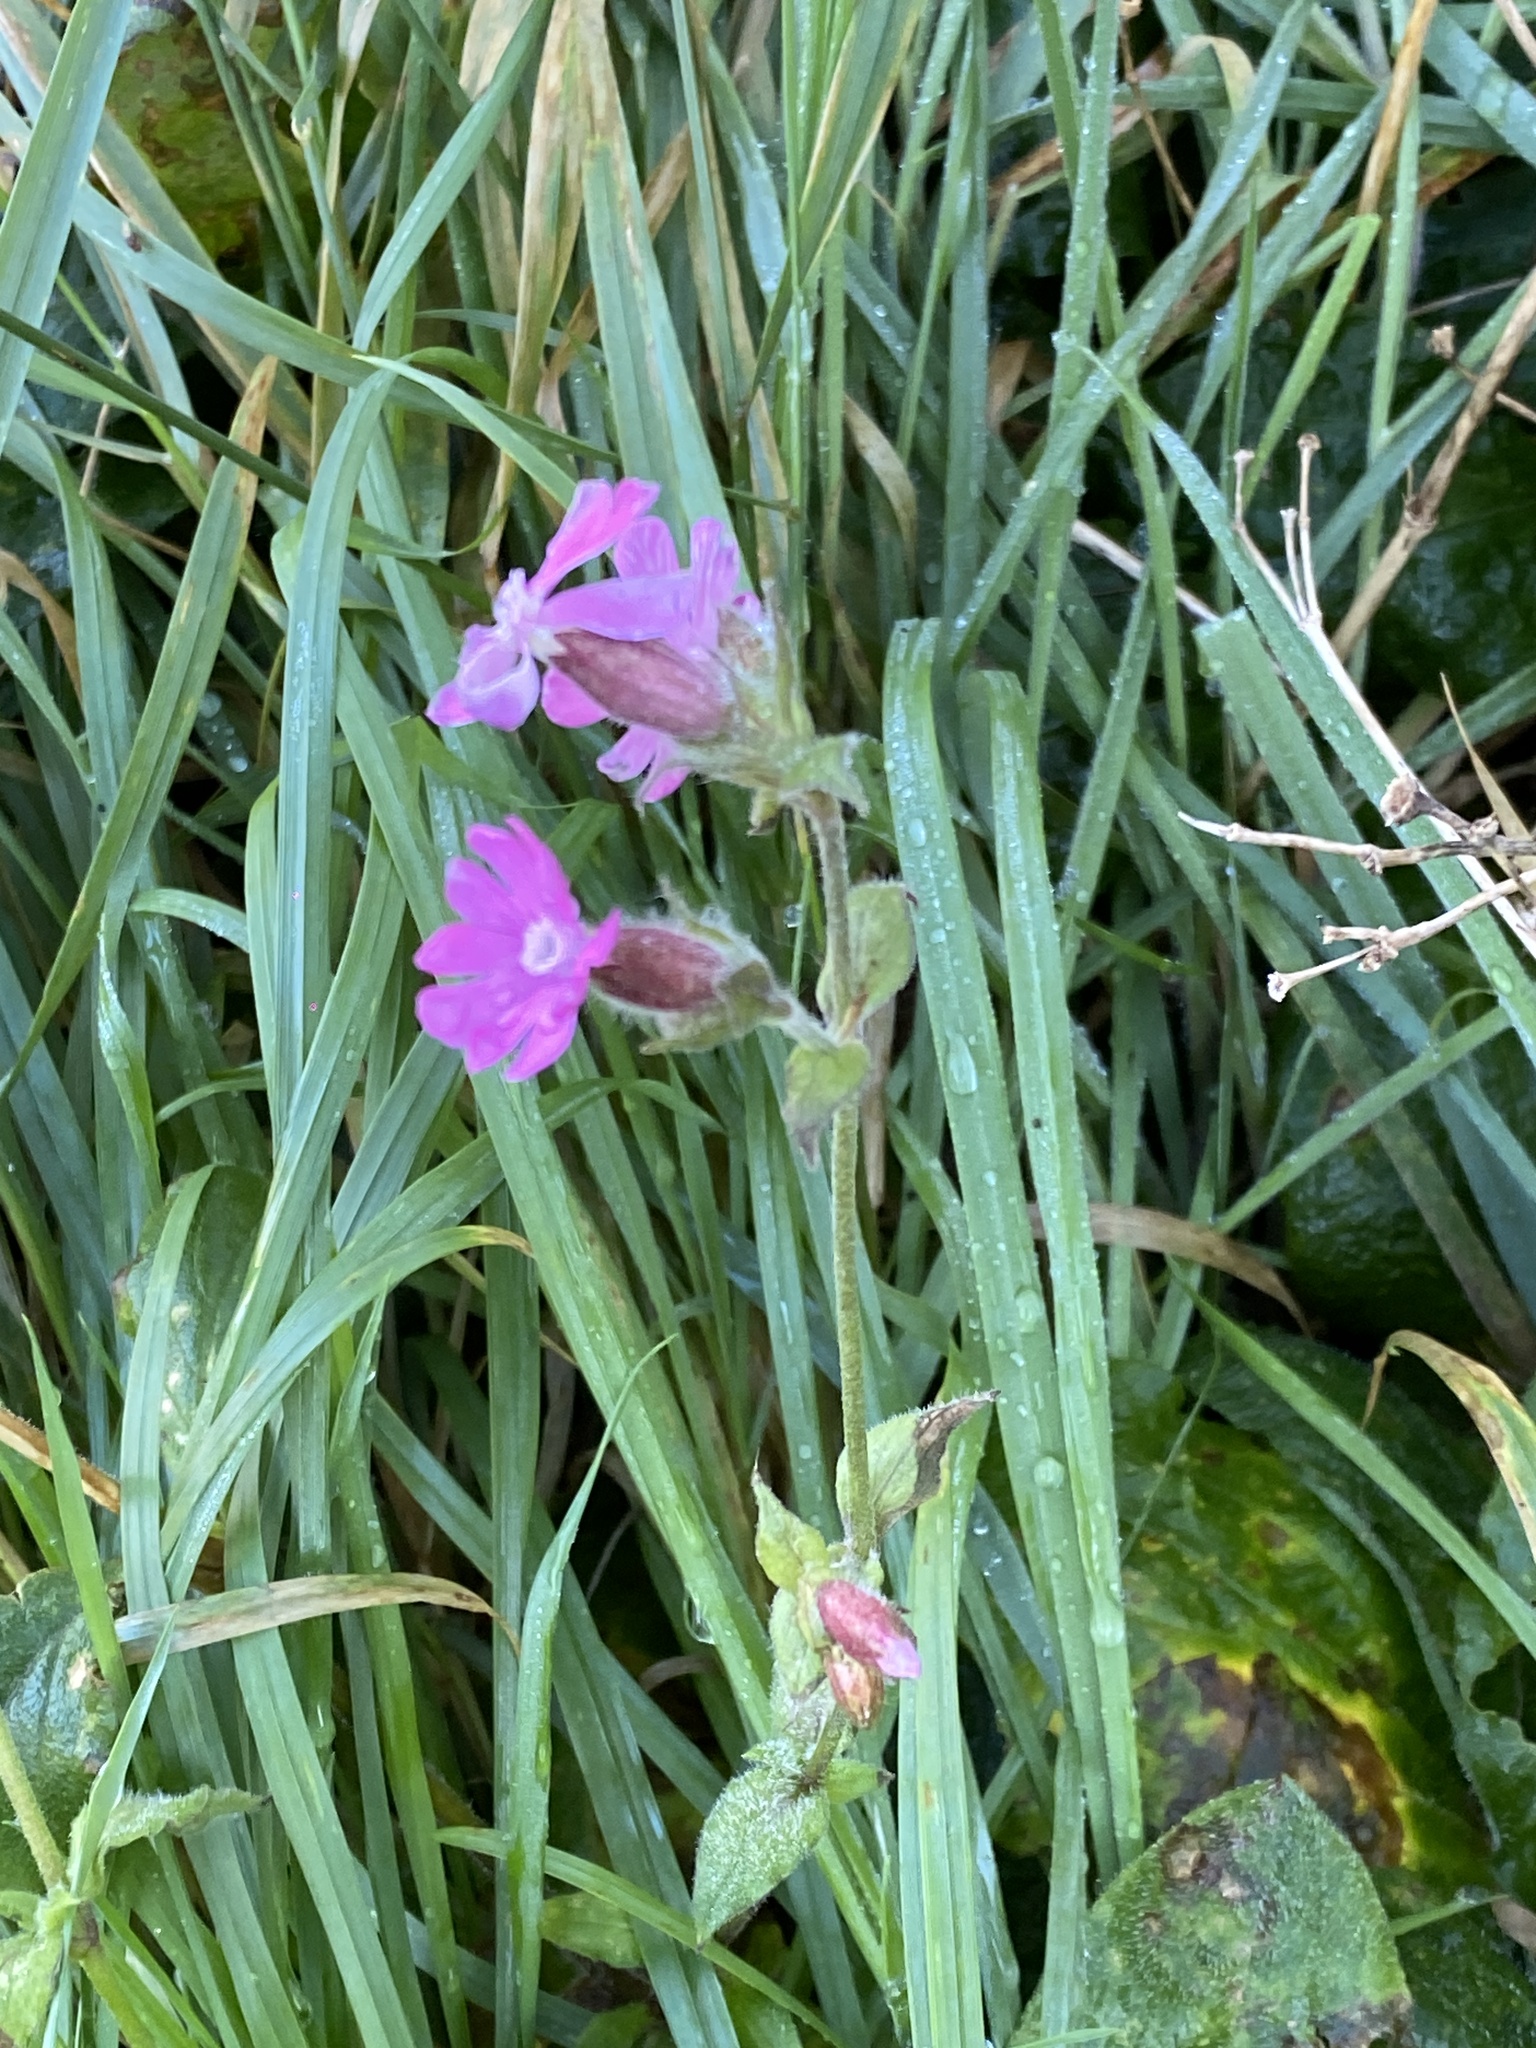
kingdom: Plantae
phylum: Tracheophyta
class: Magnoliopsida
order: Caryophyllales
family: Caryophyllaceae
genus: Silene
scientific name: Silene dioica
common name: Red campion
